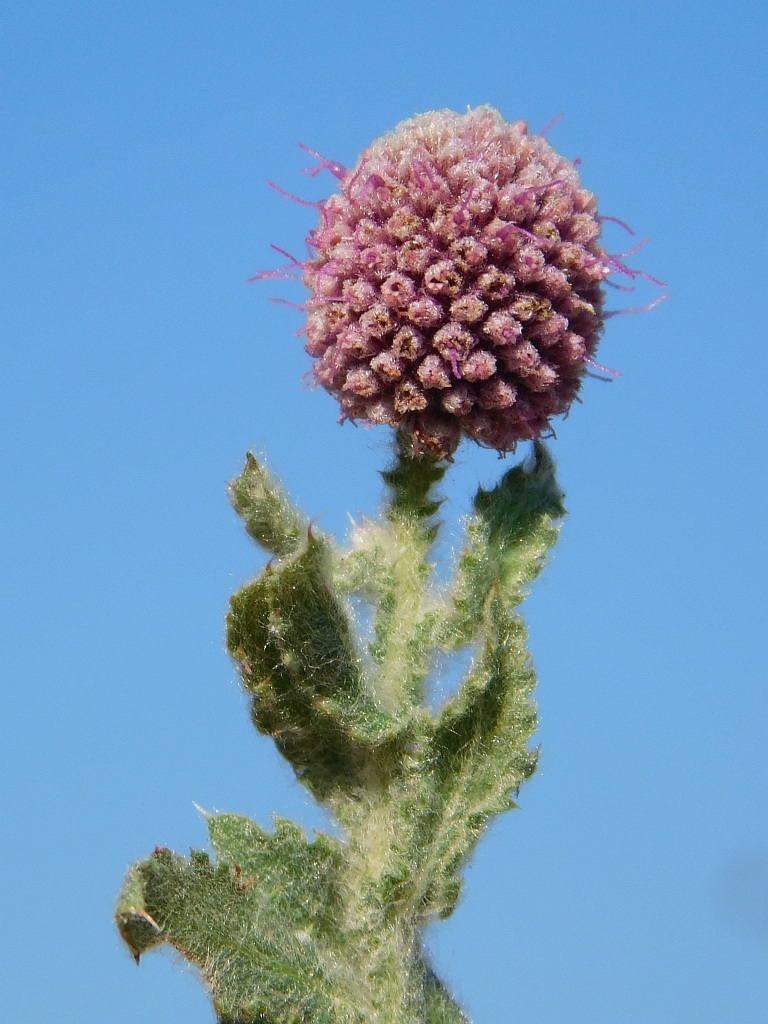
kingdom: Plantae
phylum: Tracheophyta
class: Magnoliopsida
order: Asterales
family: Asteraceae
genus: Sphaeranthus
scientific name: Sphaeranthus senegalensis
